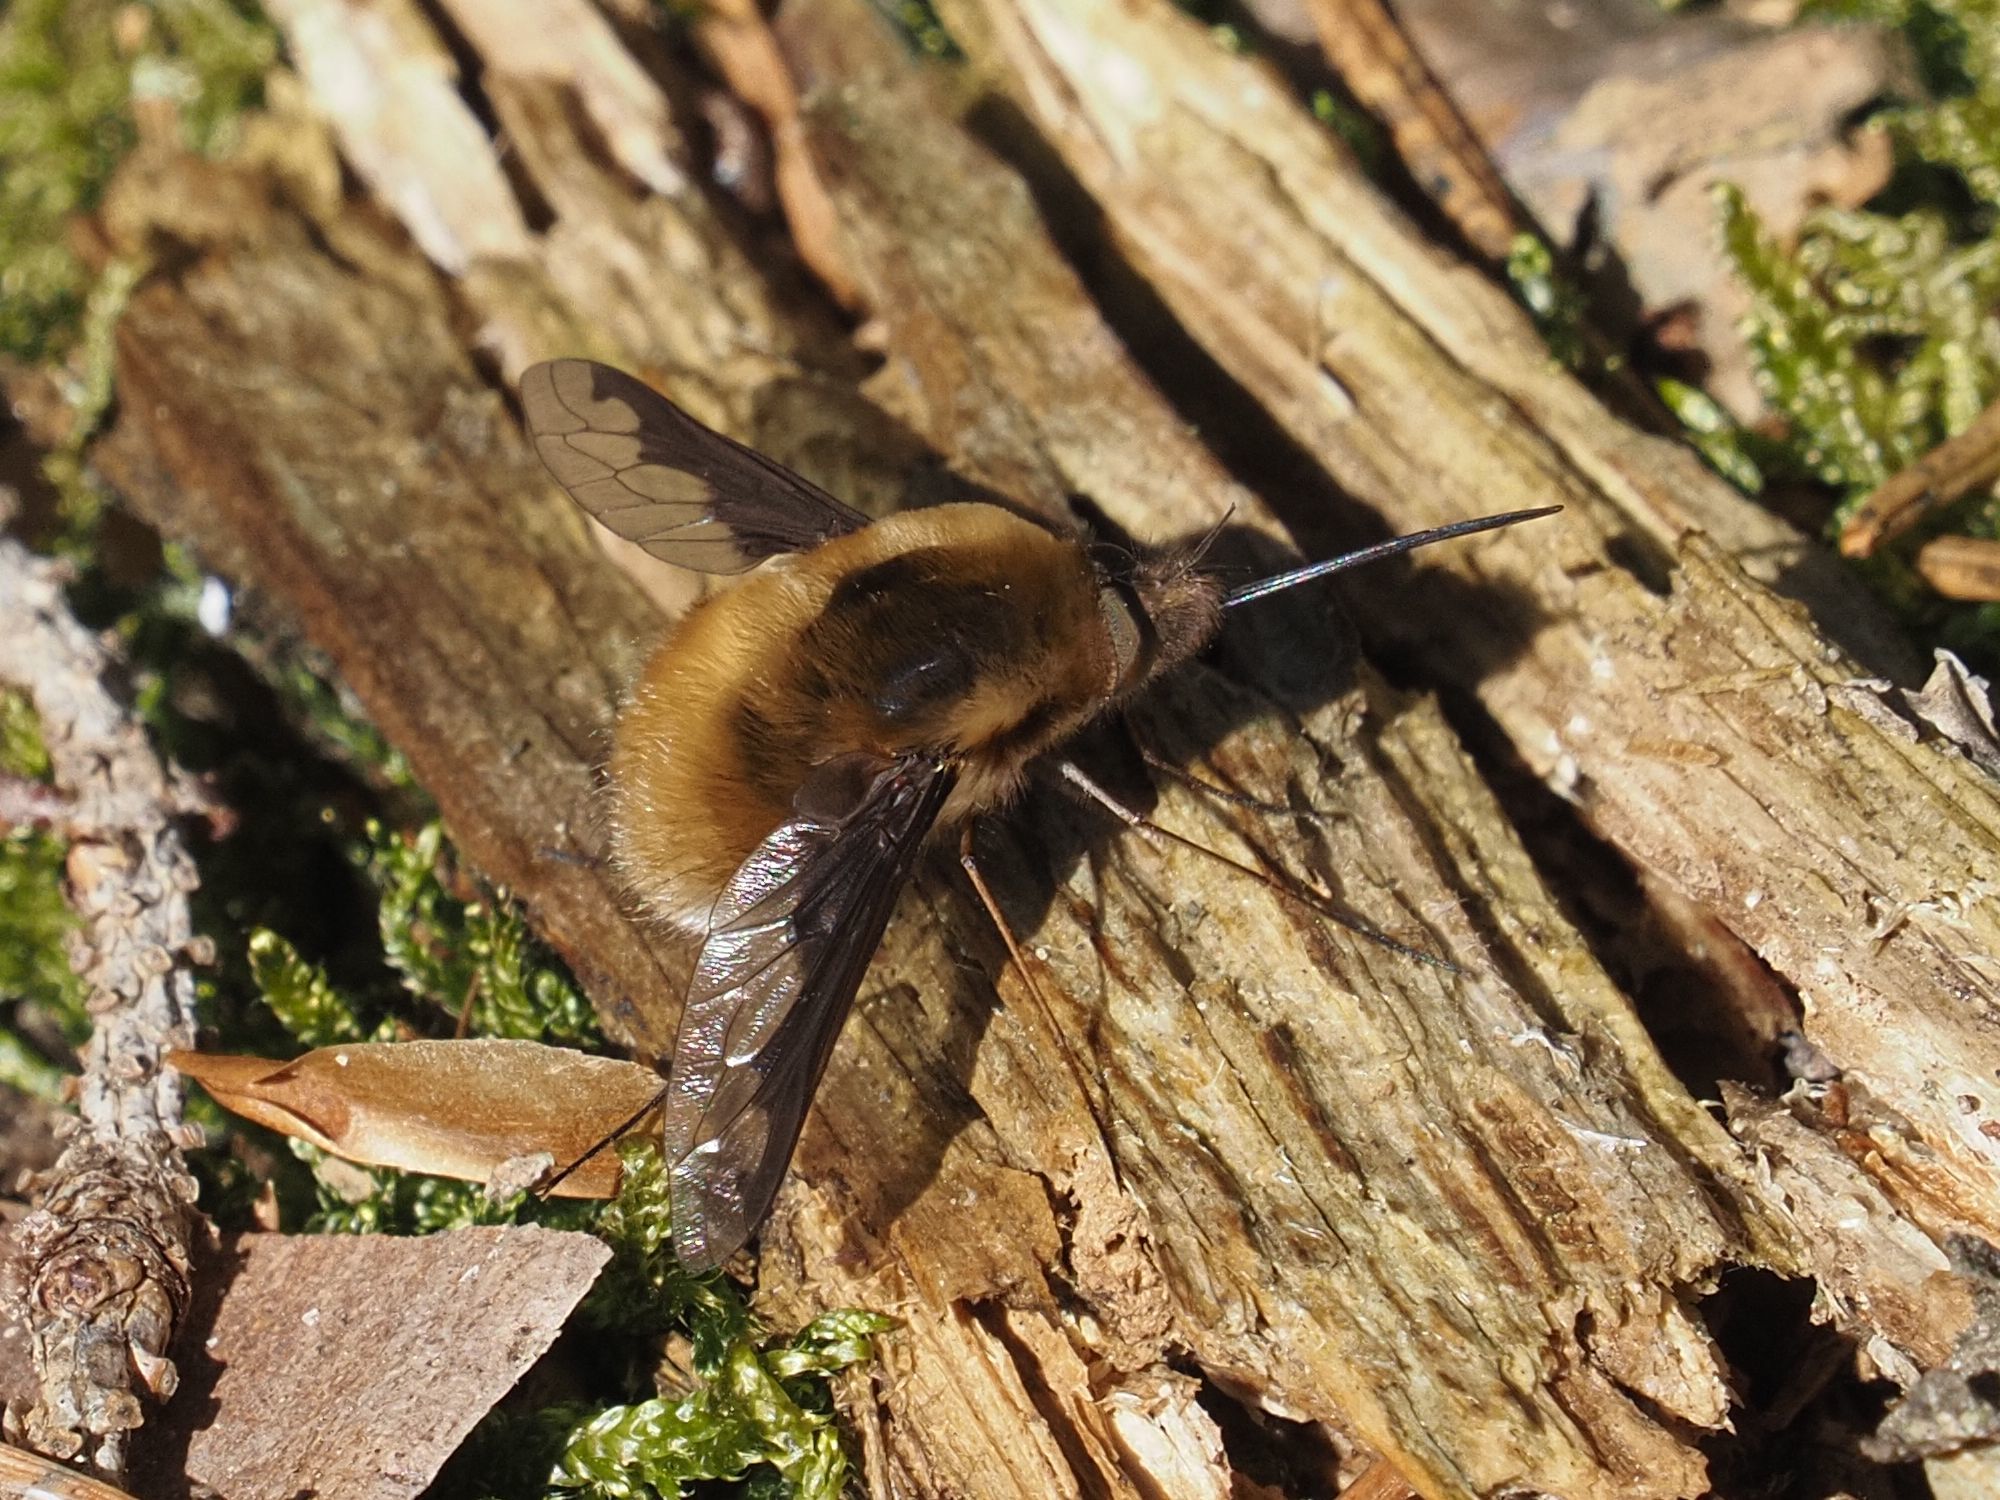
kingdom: Animalia
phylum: Arthropoda
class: Insecta
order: Diptera
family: Bombyliidae
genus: Bombylius
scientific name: Bombylius major
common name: Bee fly
